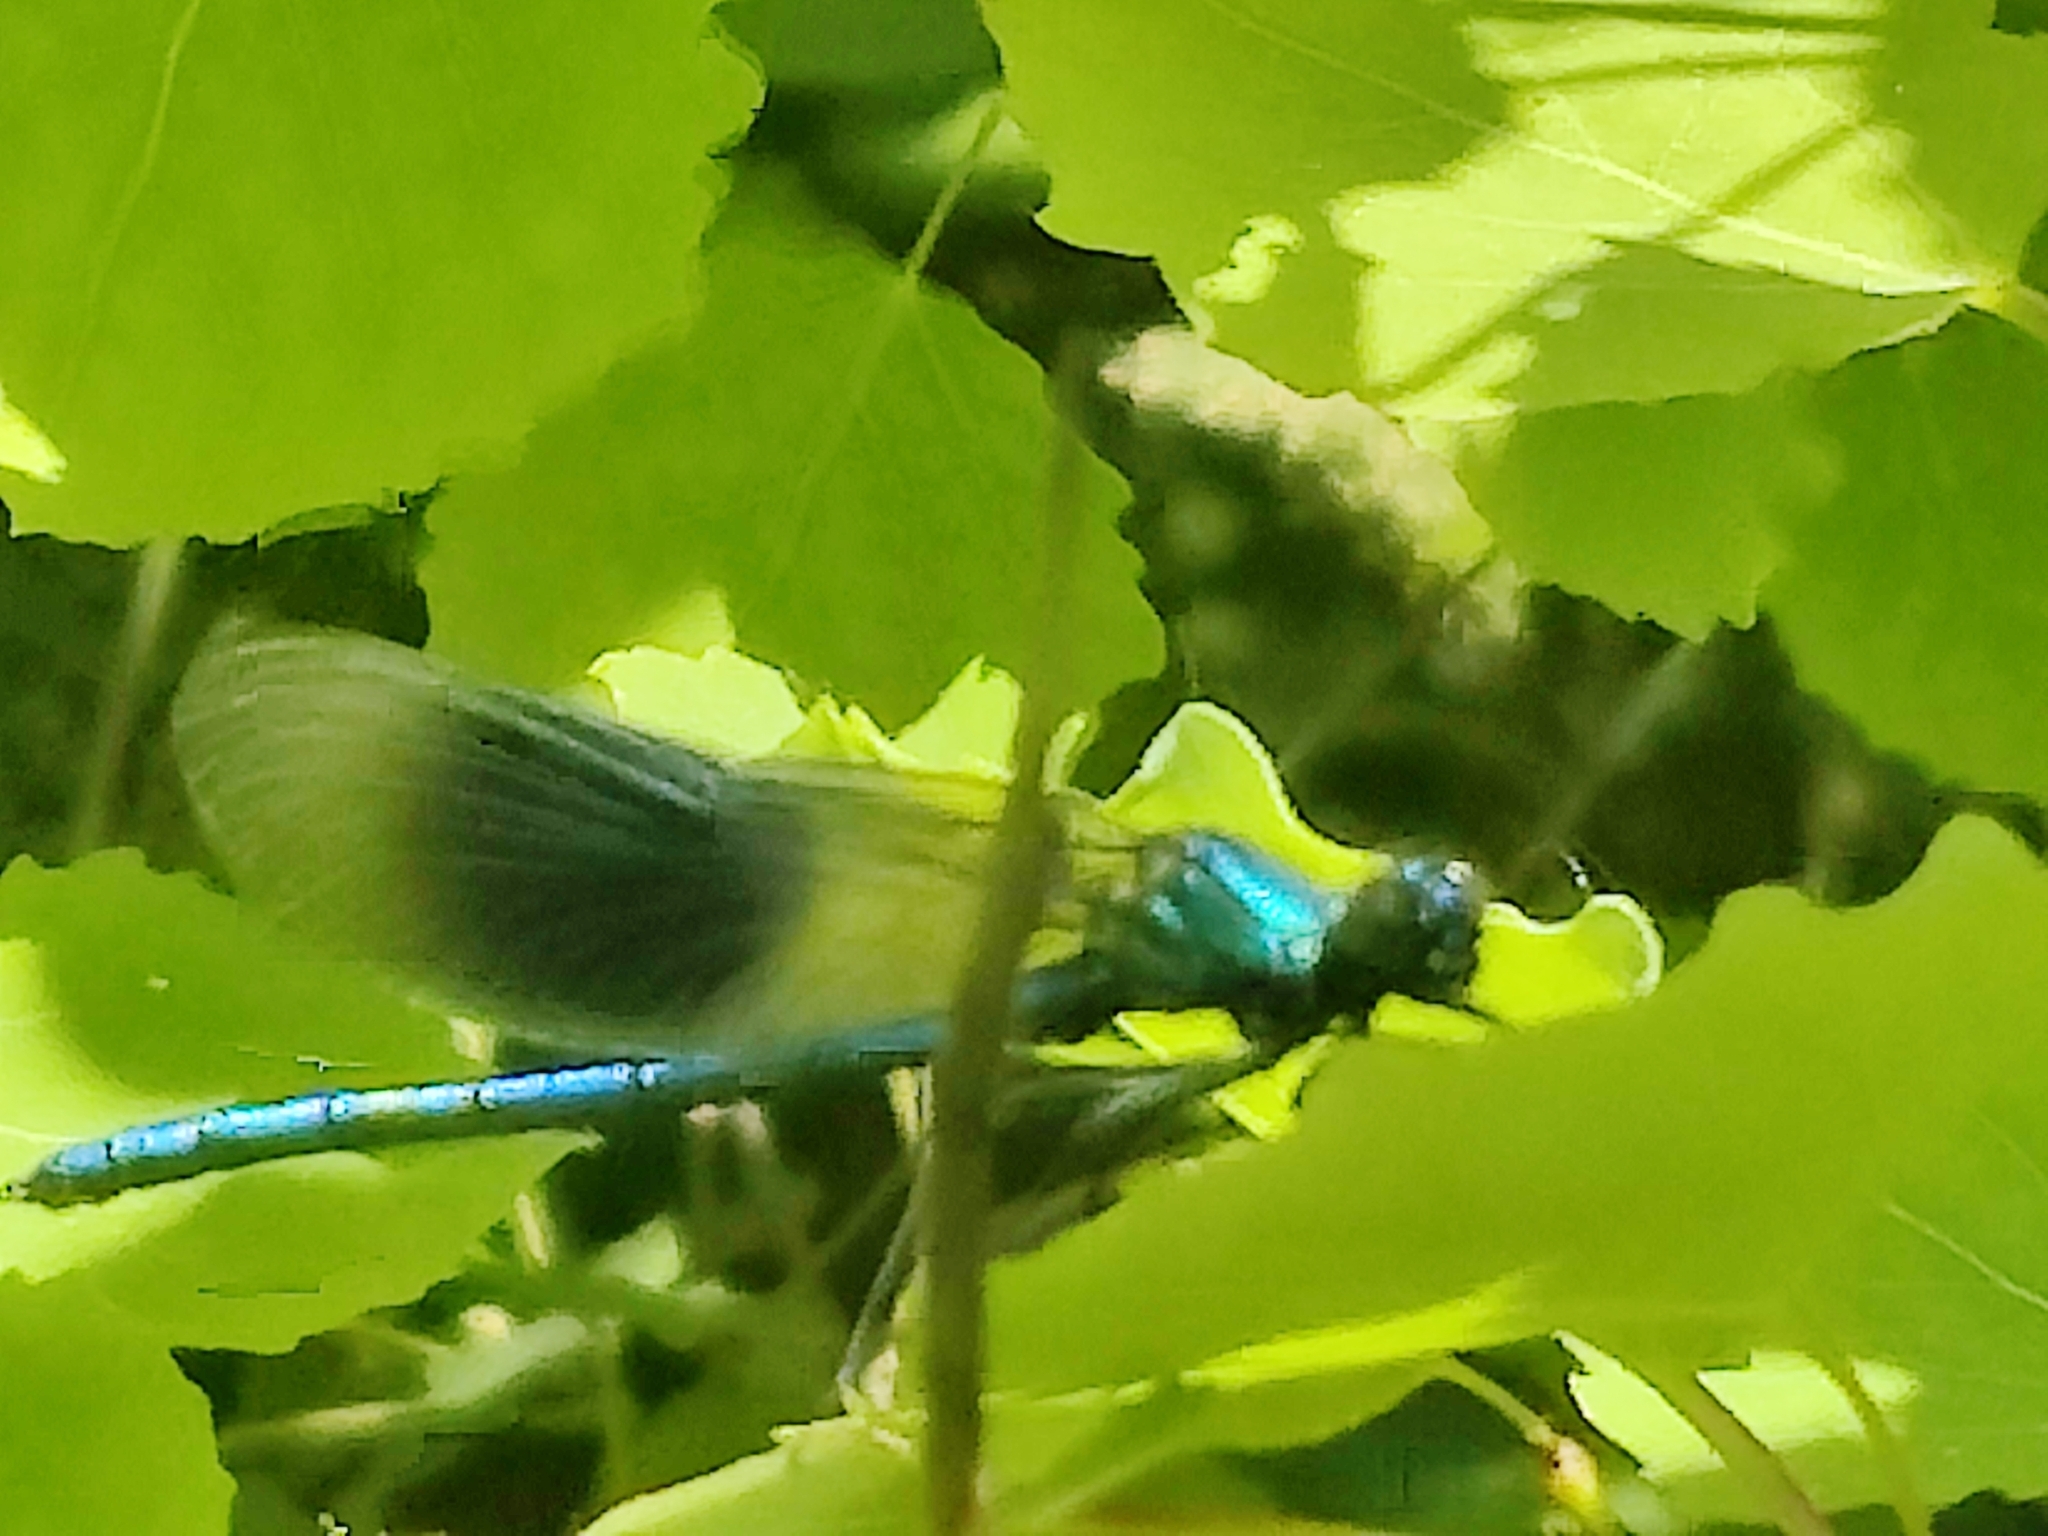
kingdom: Animalia
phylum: Arthropoda
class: Insecta
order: Odonata
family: Calopterygidae
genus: Calopteryx
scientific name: Calopteryx splendens
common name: Banded demoiselle
